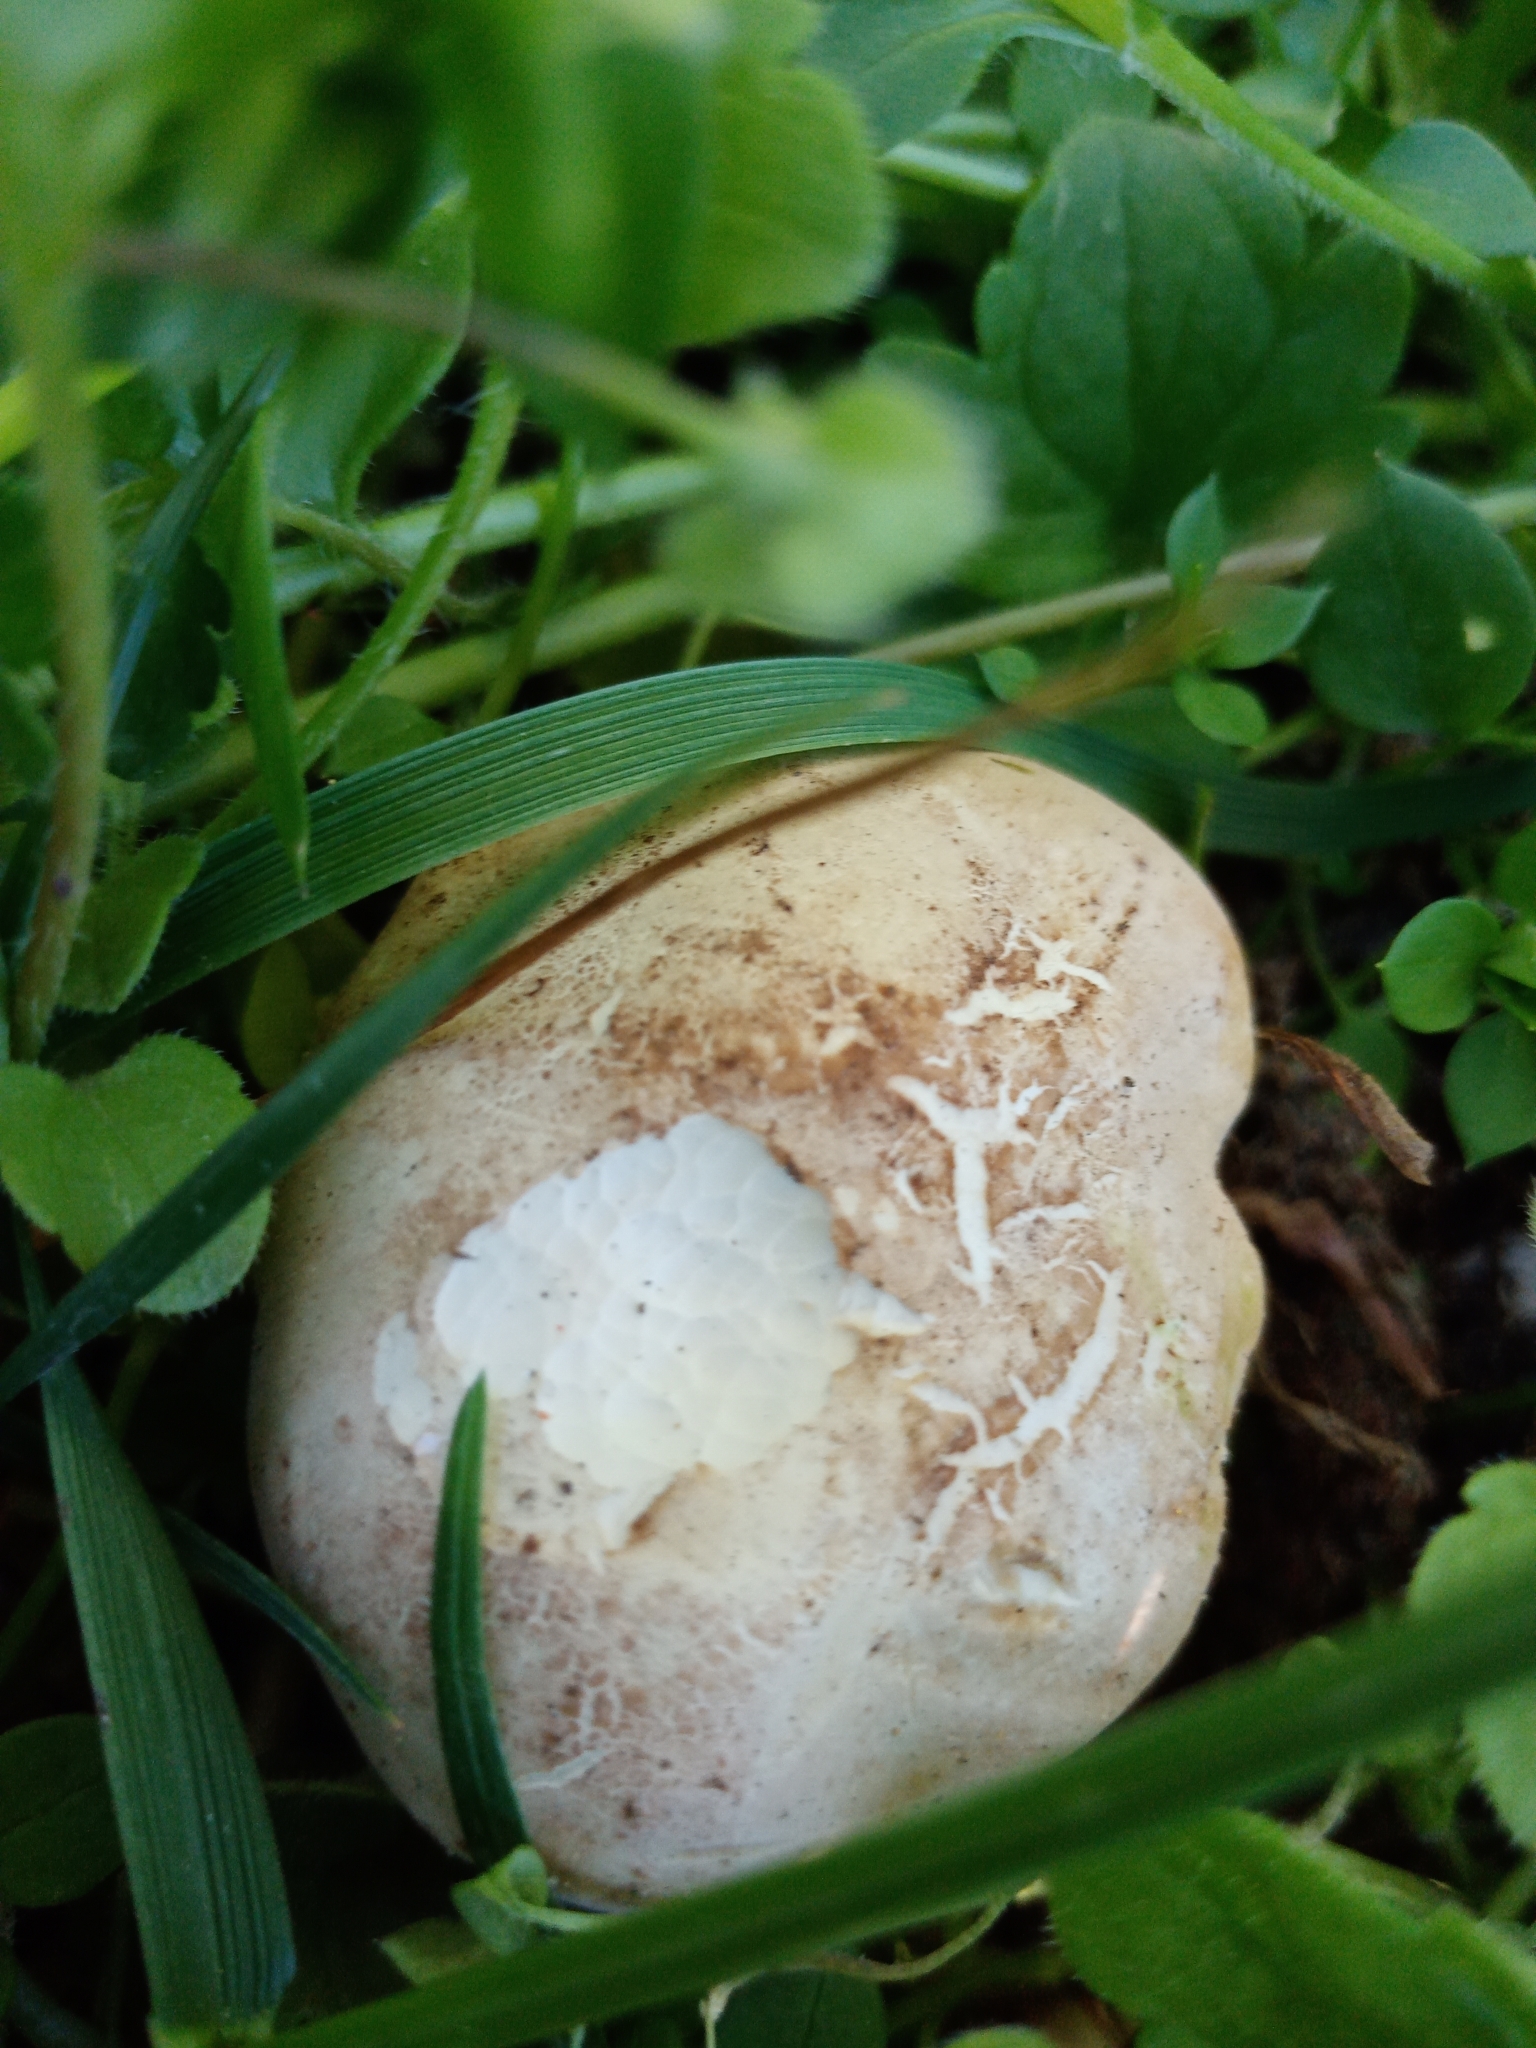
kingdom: Fungi
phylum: Basidiomycota
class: Agaricomycetes
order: Agaricales
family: Lyophyllaceae
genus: Calocybe
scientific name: Calocybe gambosa
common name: St. george's mushroom
